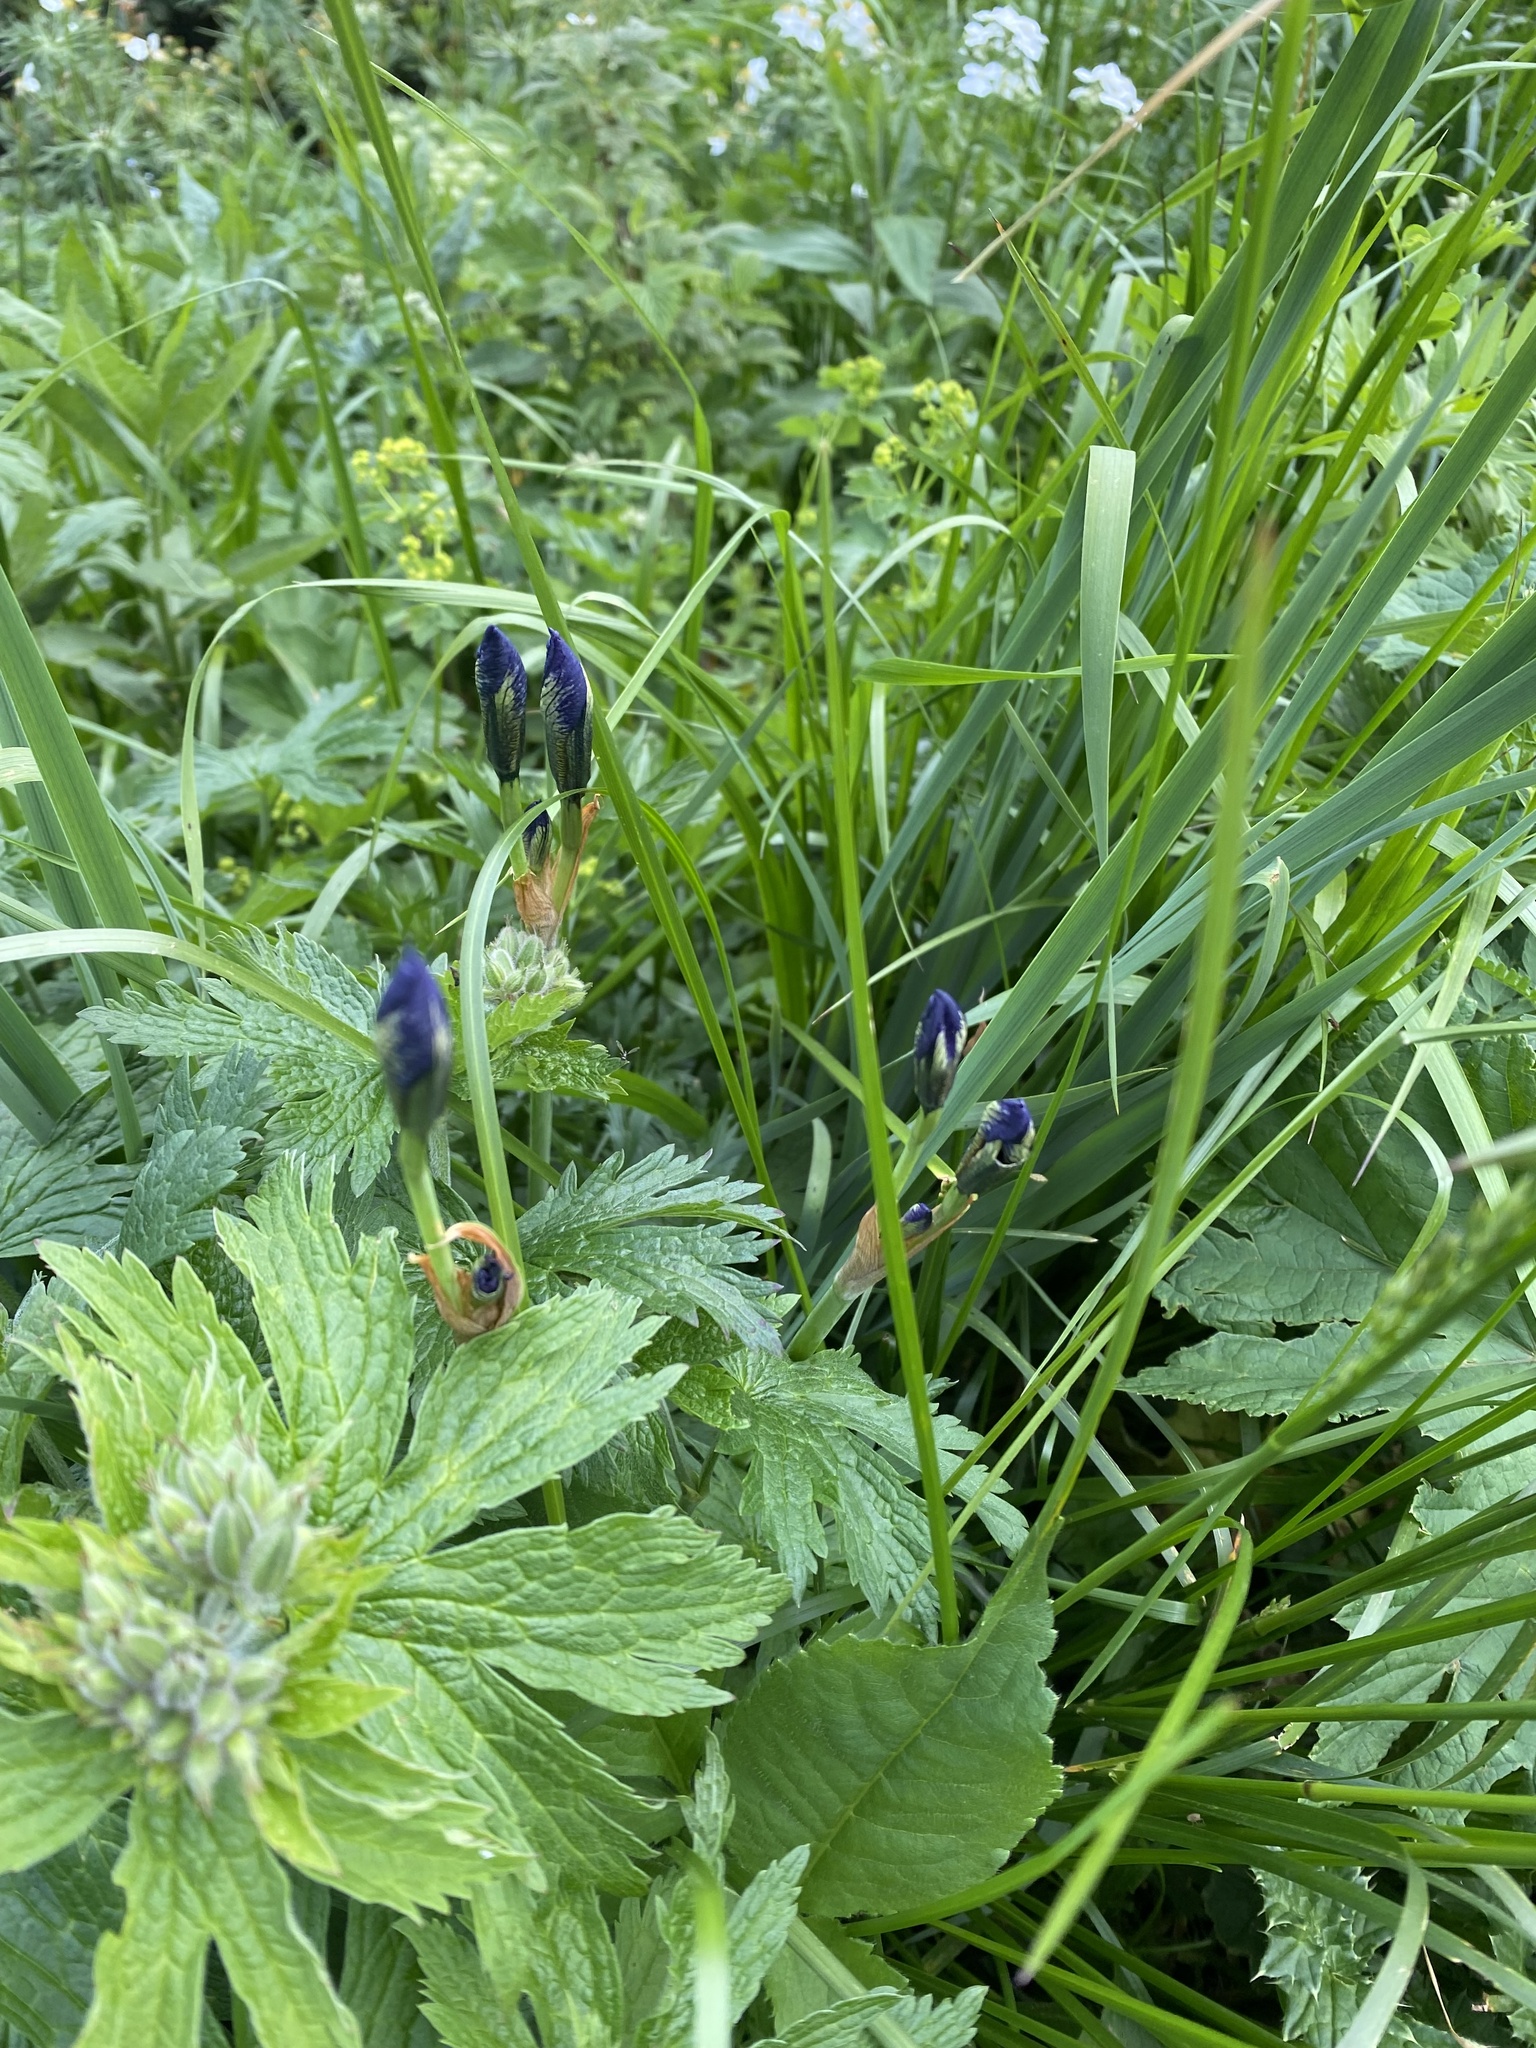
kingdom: Plantae
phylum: Tracheophyta
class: Liliopsida
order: Asparagales
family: Iridaceae
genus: Iris
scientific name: Iris sibirica
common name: Siberian iris
